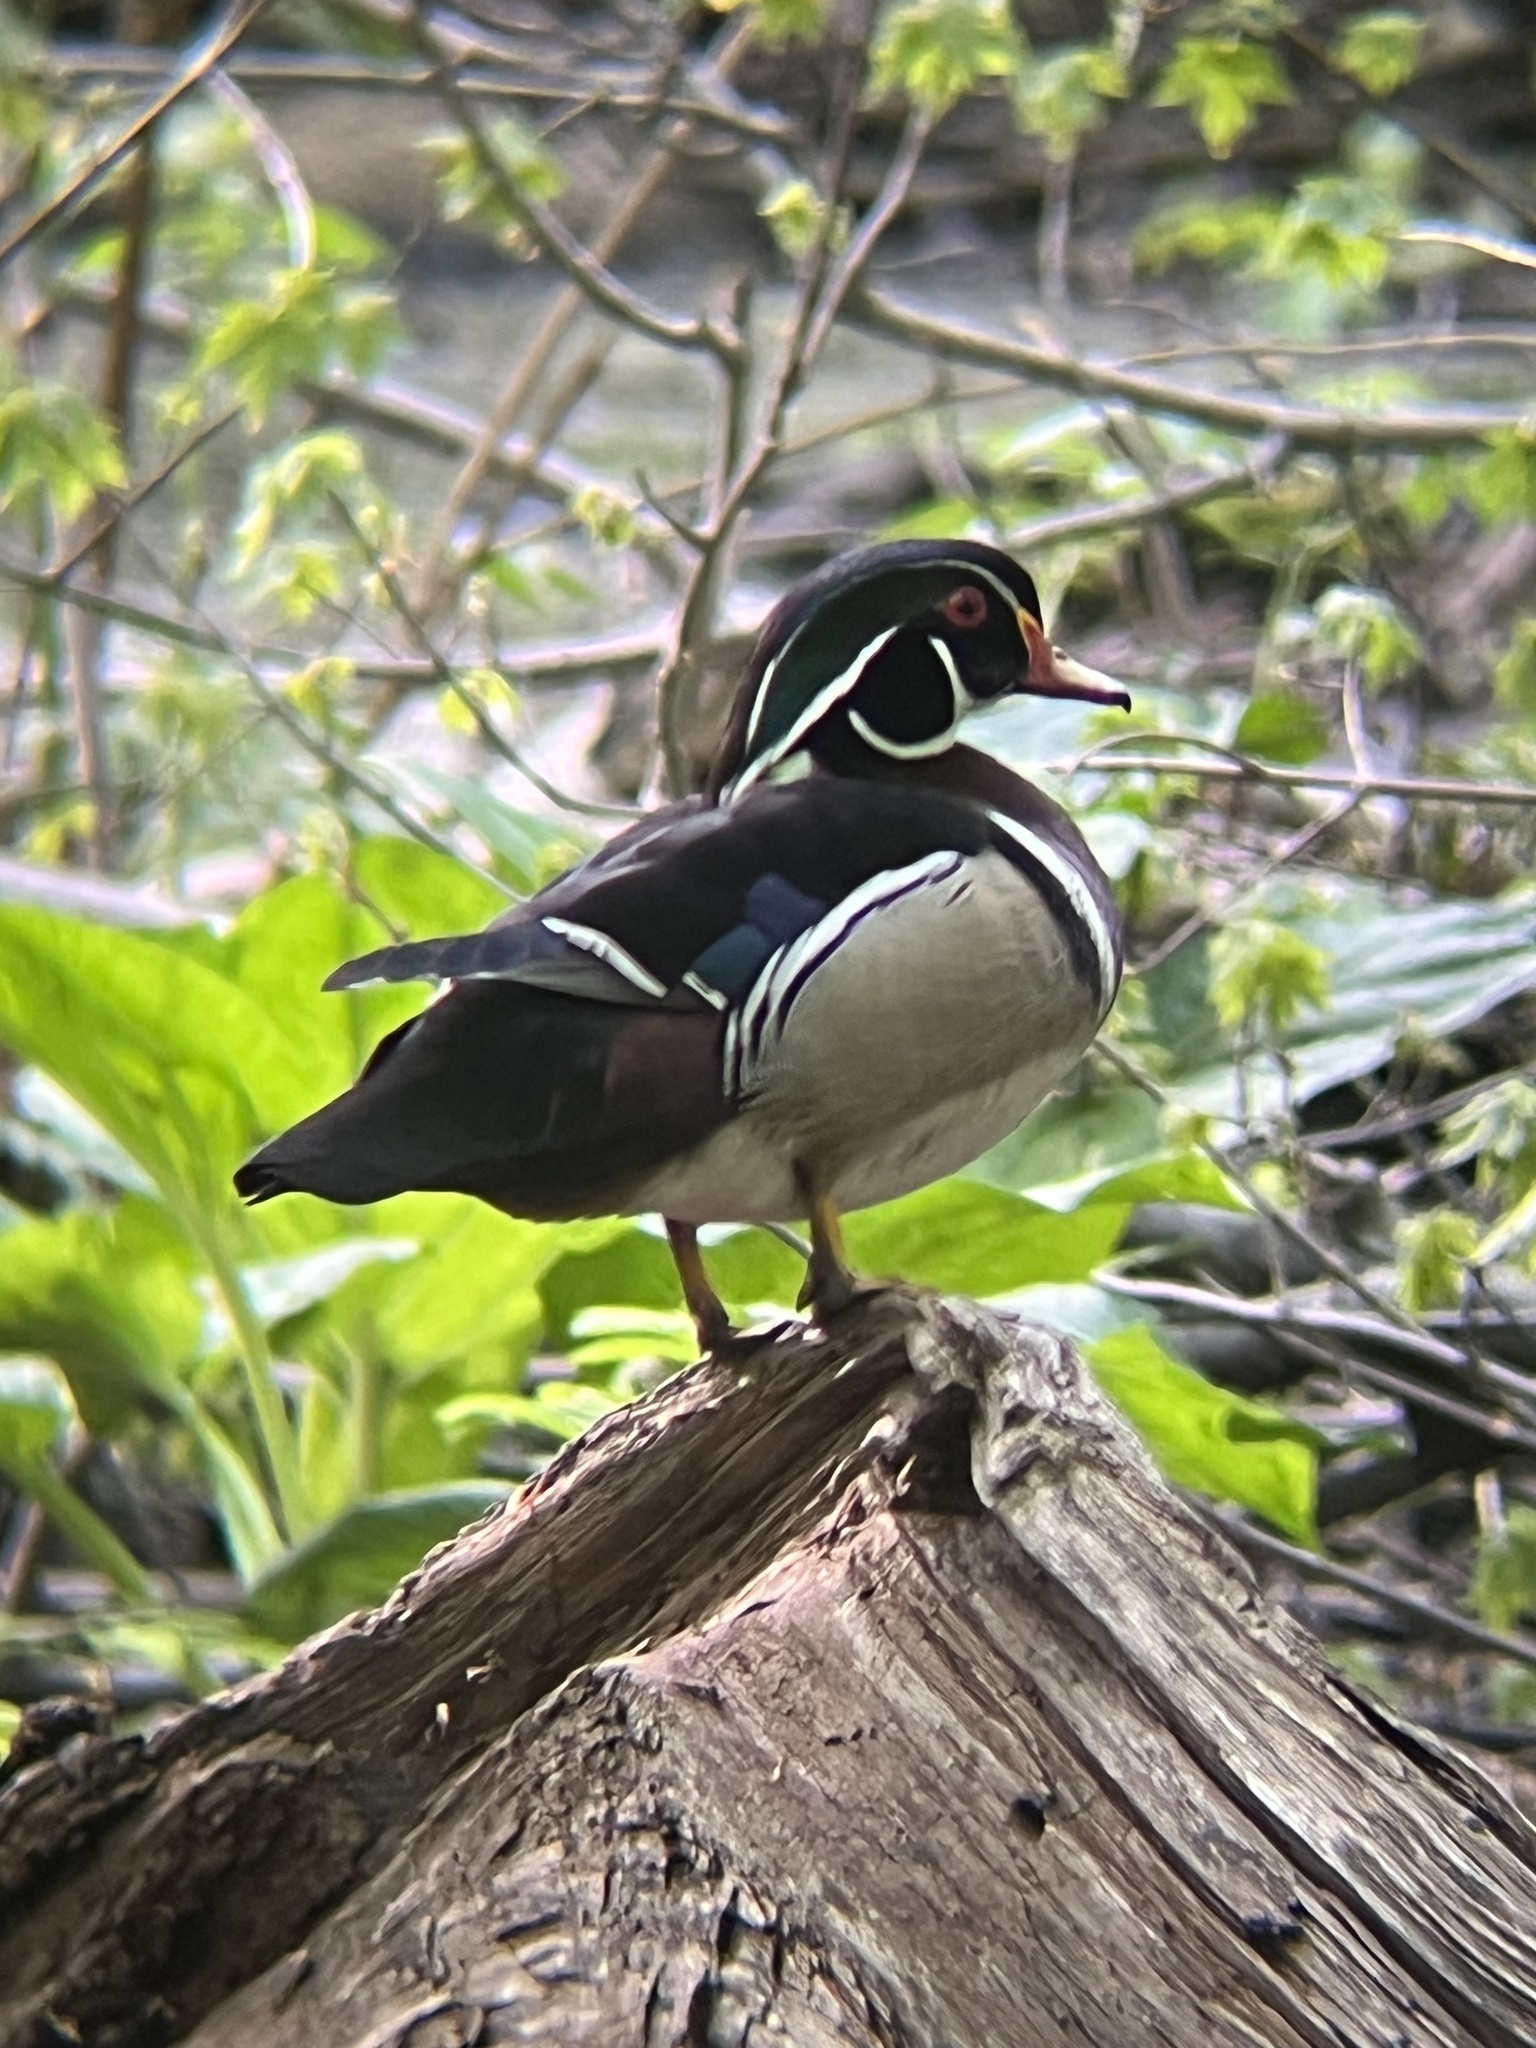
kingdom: Animalia
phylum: Chordata
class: Aves
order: Anseriformes
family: Anatidae
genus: Aix
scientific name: Aix sponsa
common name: Wood duck
